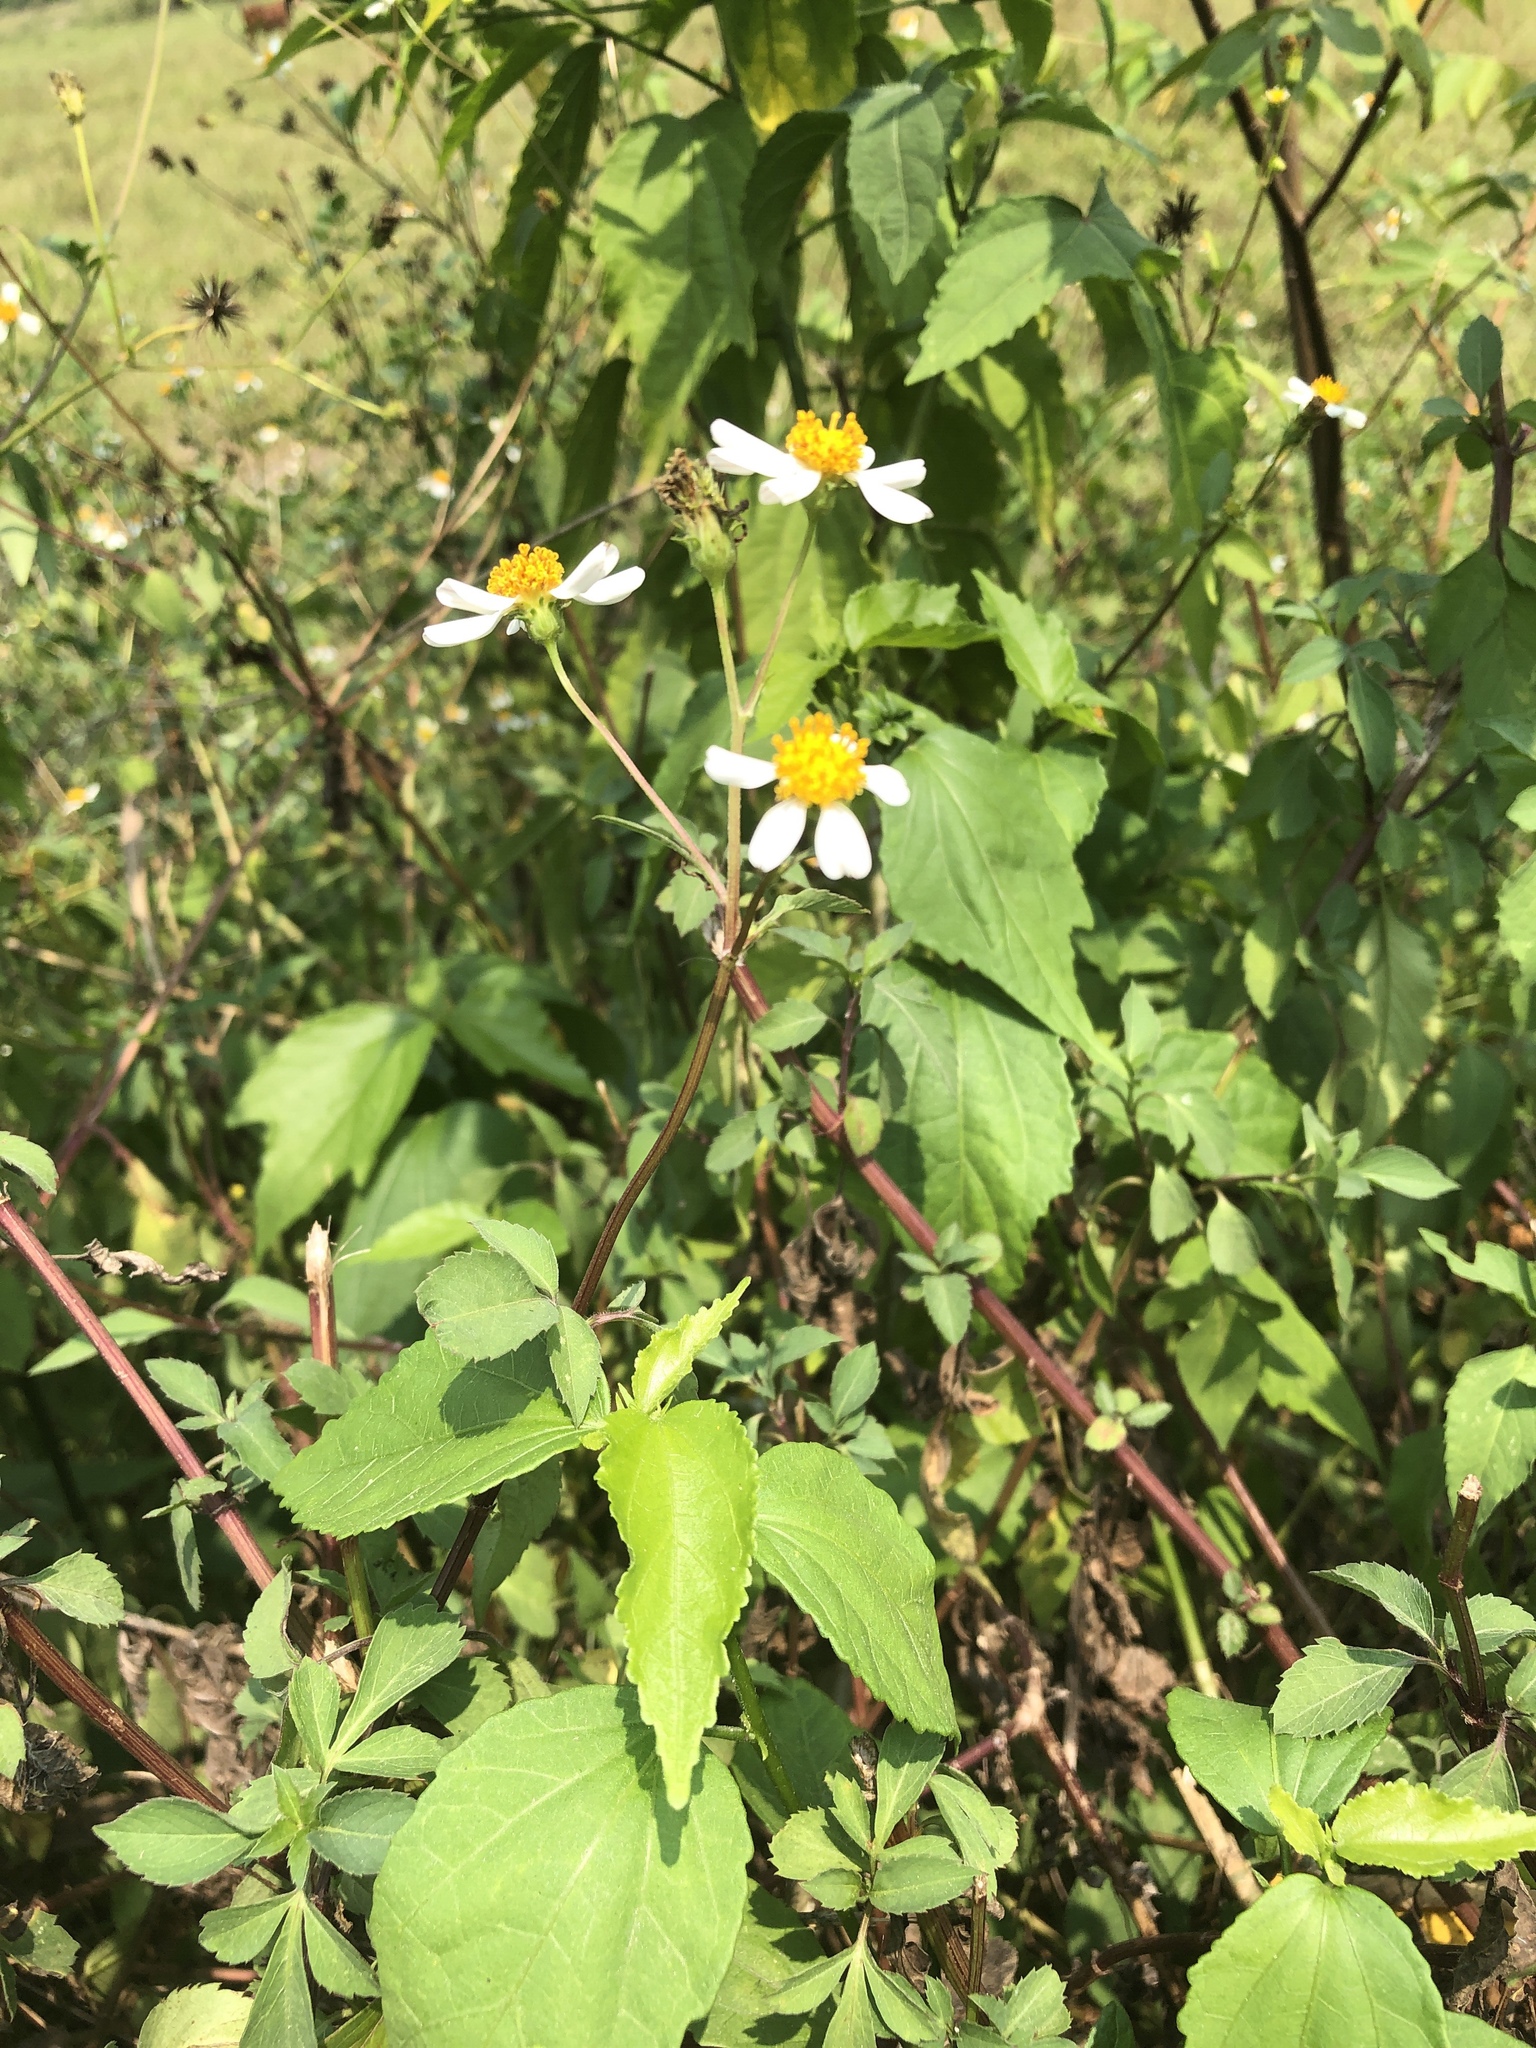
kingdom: Plantae
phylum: Tracheophyta
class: Magnoliopsida
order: Asterales
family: Asteraceae
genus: Bidens
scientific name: Bidens pilosa
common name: Black-jack
